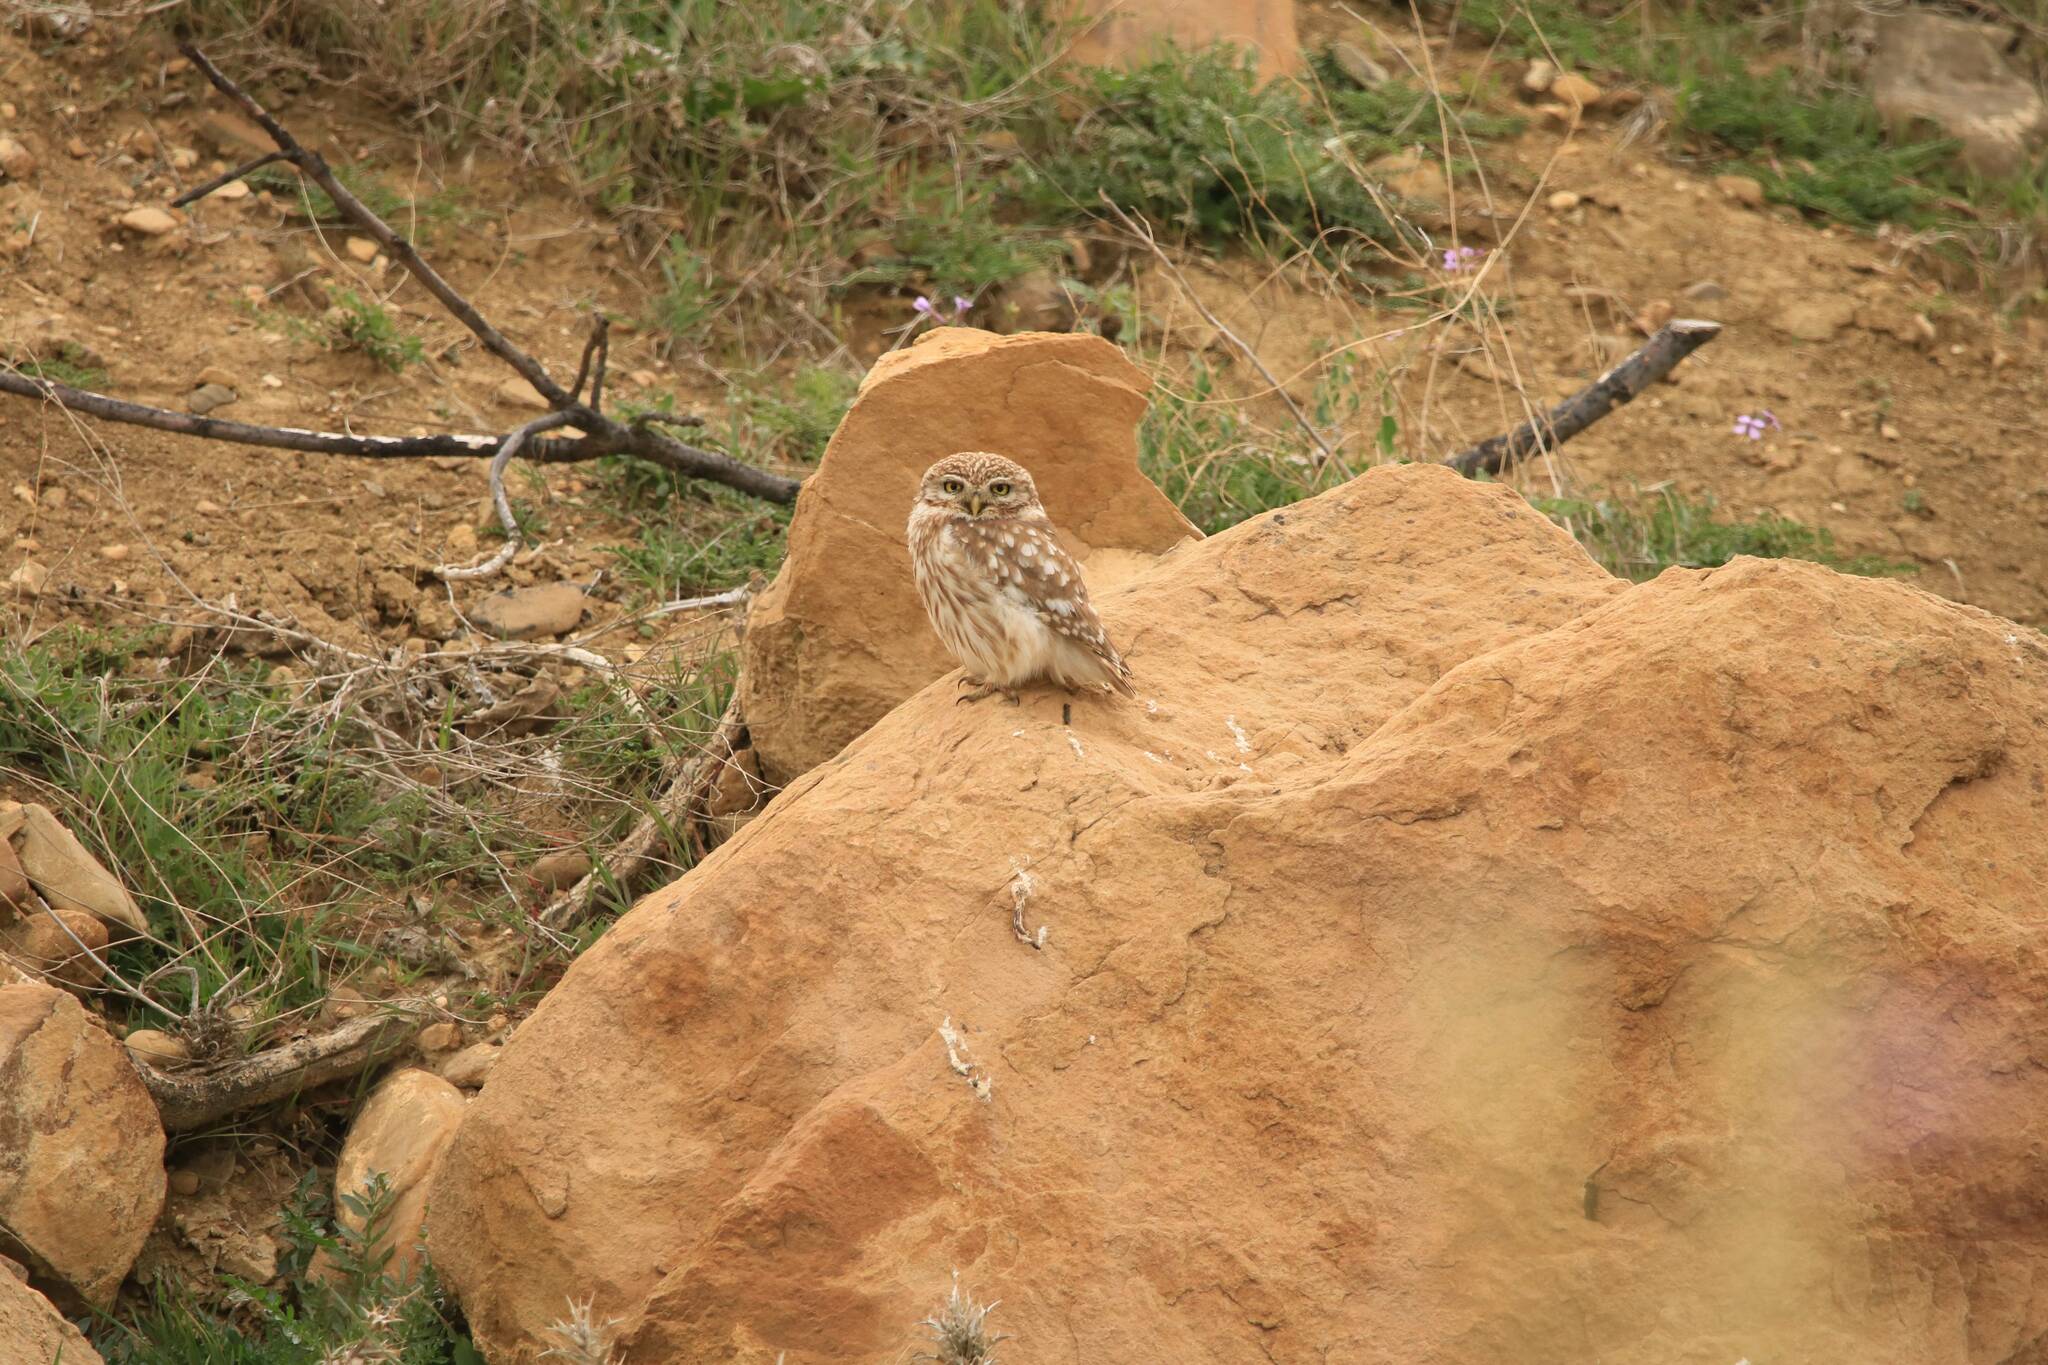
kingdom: Animalia
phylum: Chordata
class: Aves
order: Strigiformes
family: Strigidae
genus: Athene
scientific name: Athene noctua
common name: Little owl
